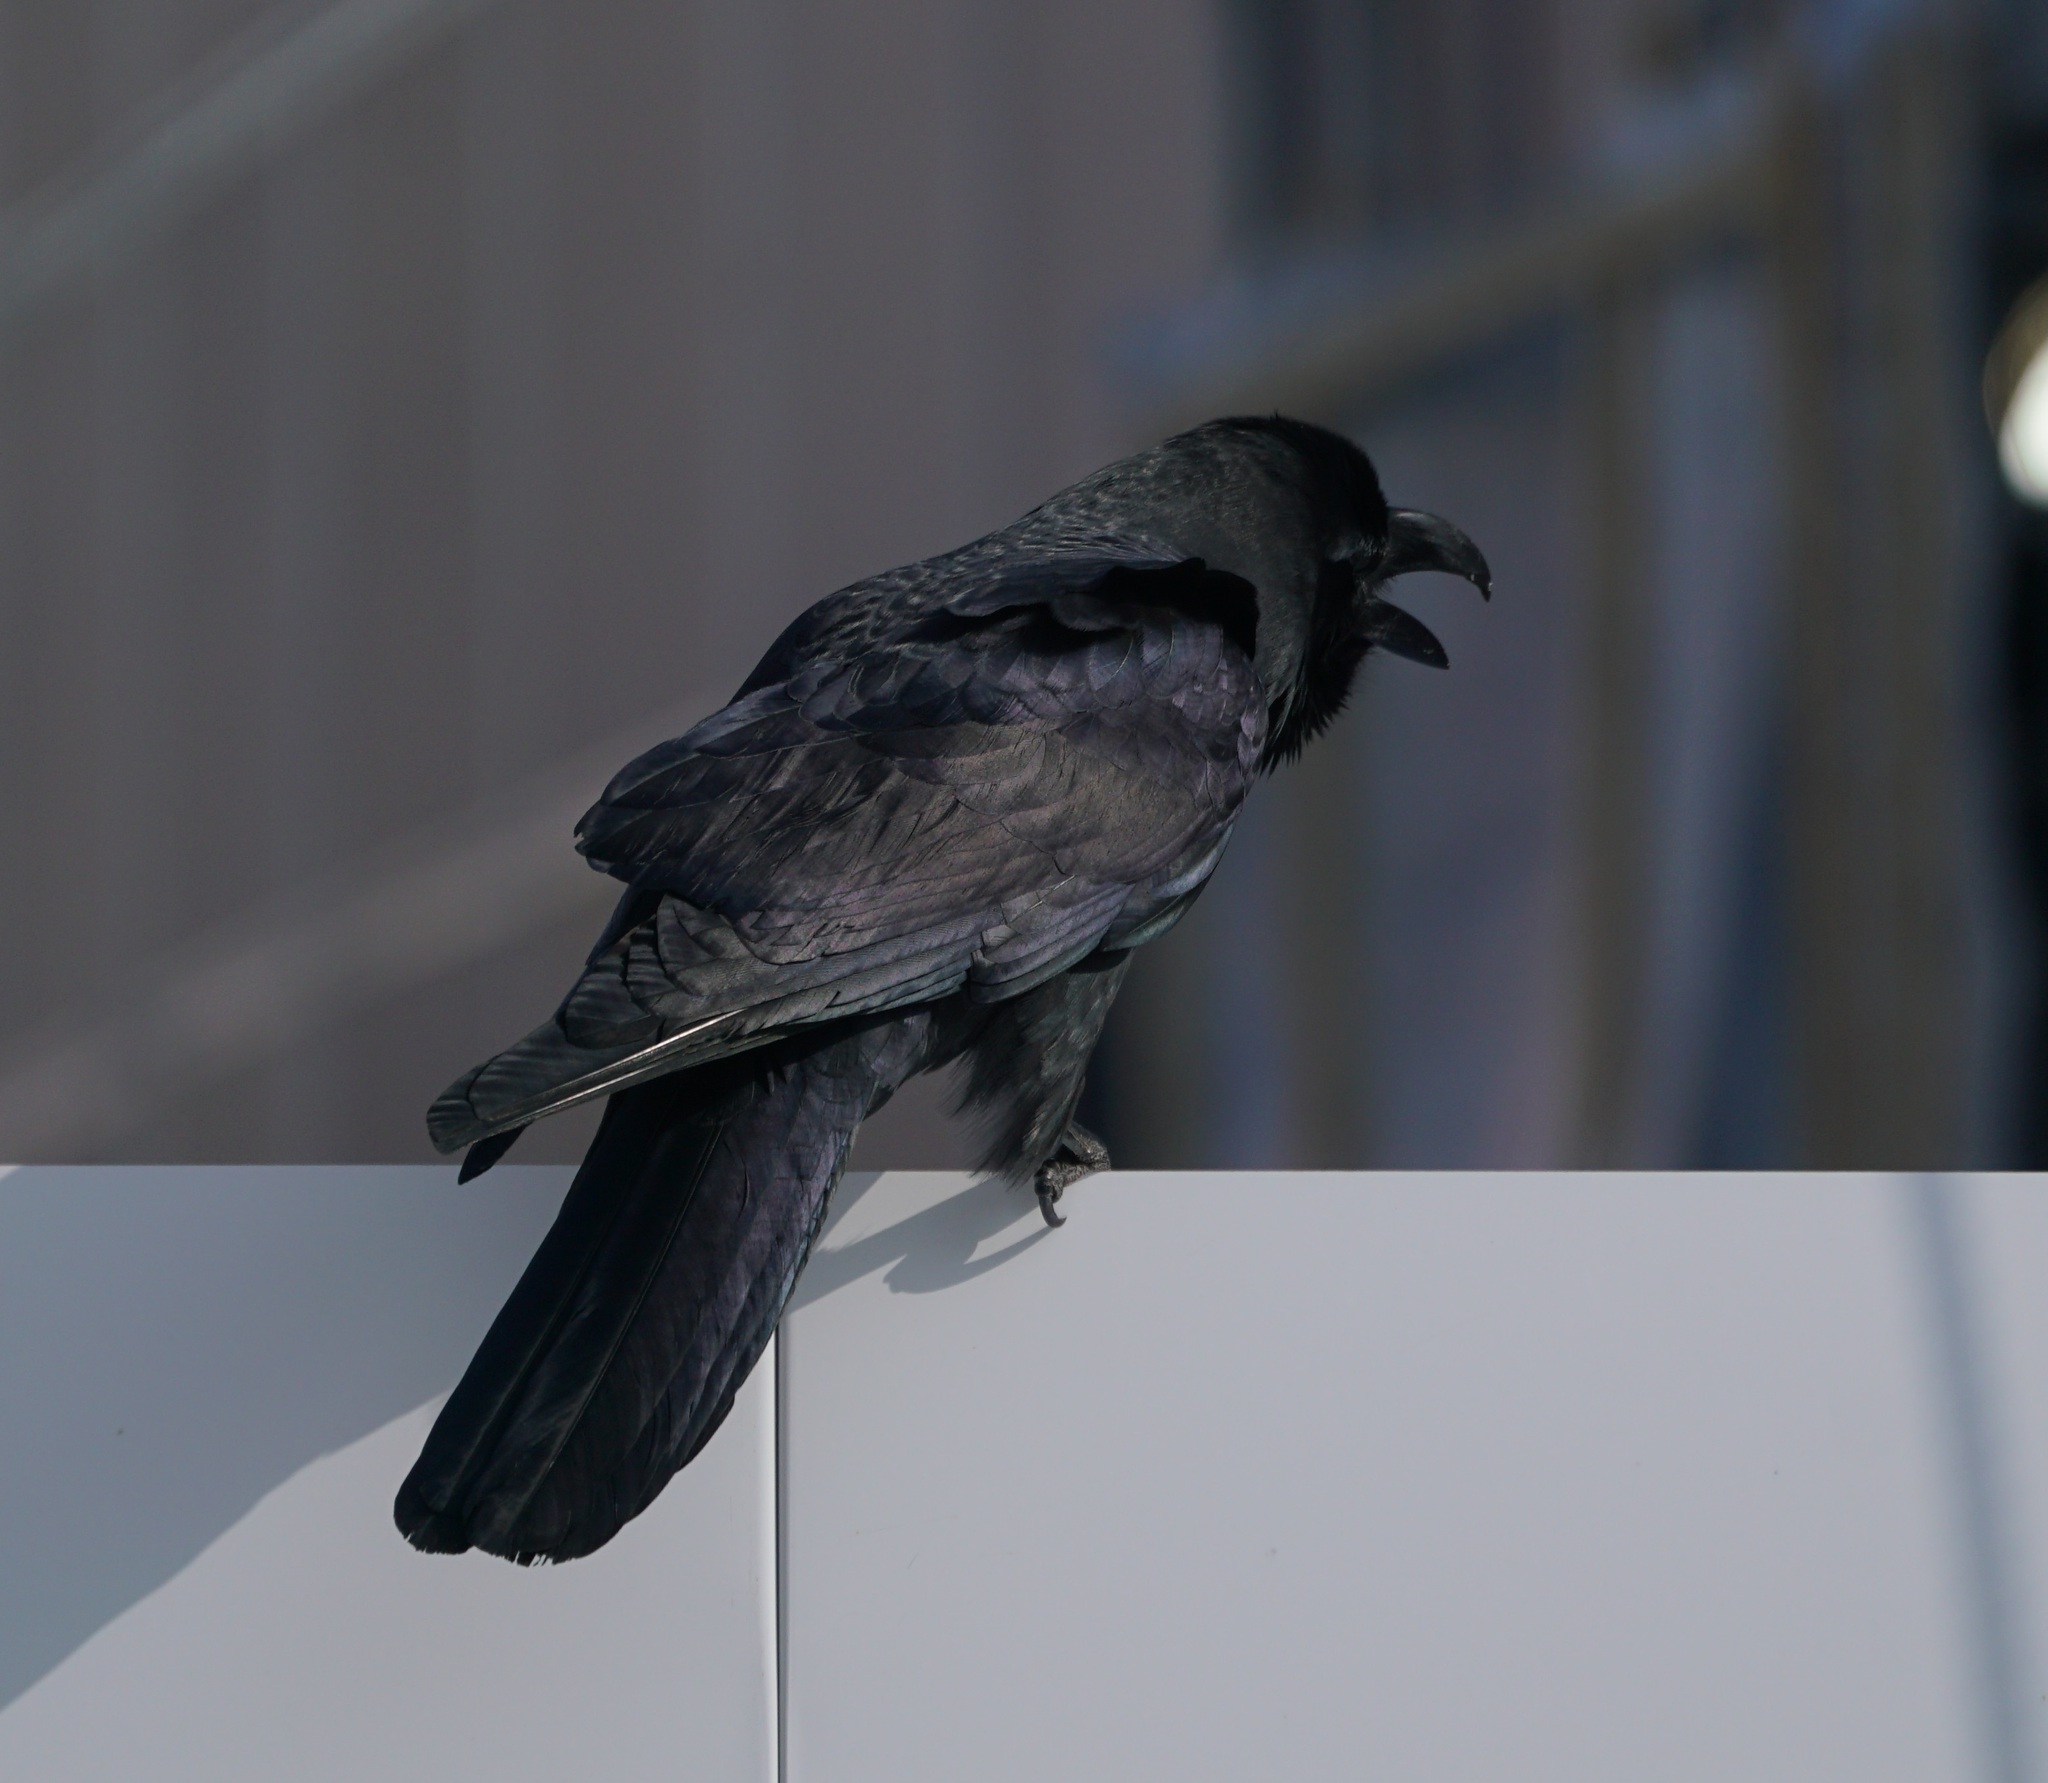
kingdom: Animalia
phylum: Chordata
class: Aves
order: Passeriformes
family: Corvidae
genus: Corvus
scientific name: Corvus macrorhynchos
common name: Large-billed crow
